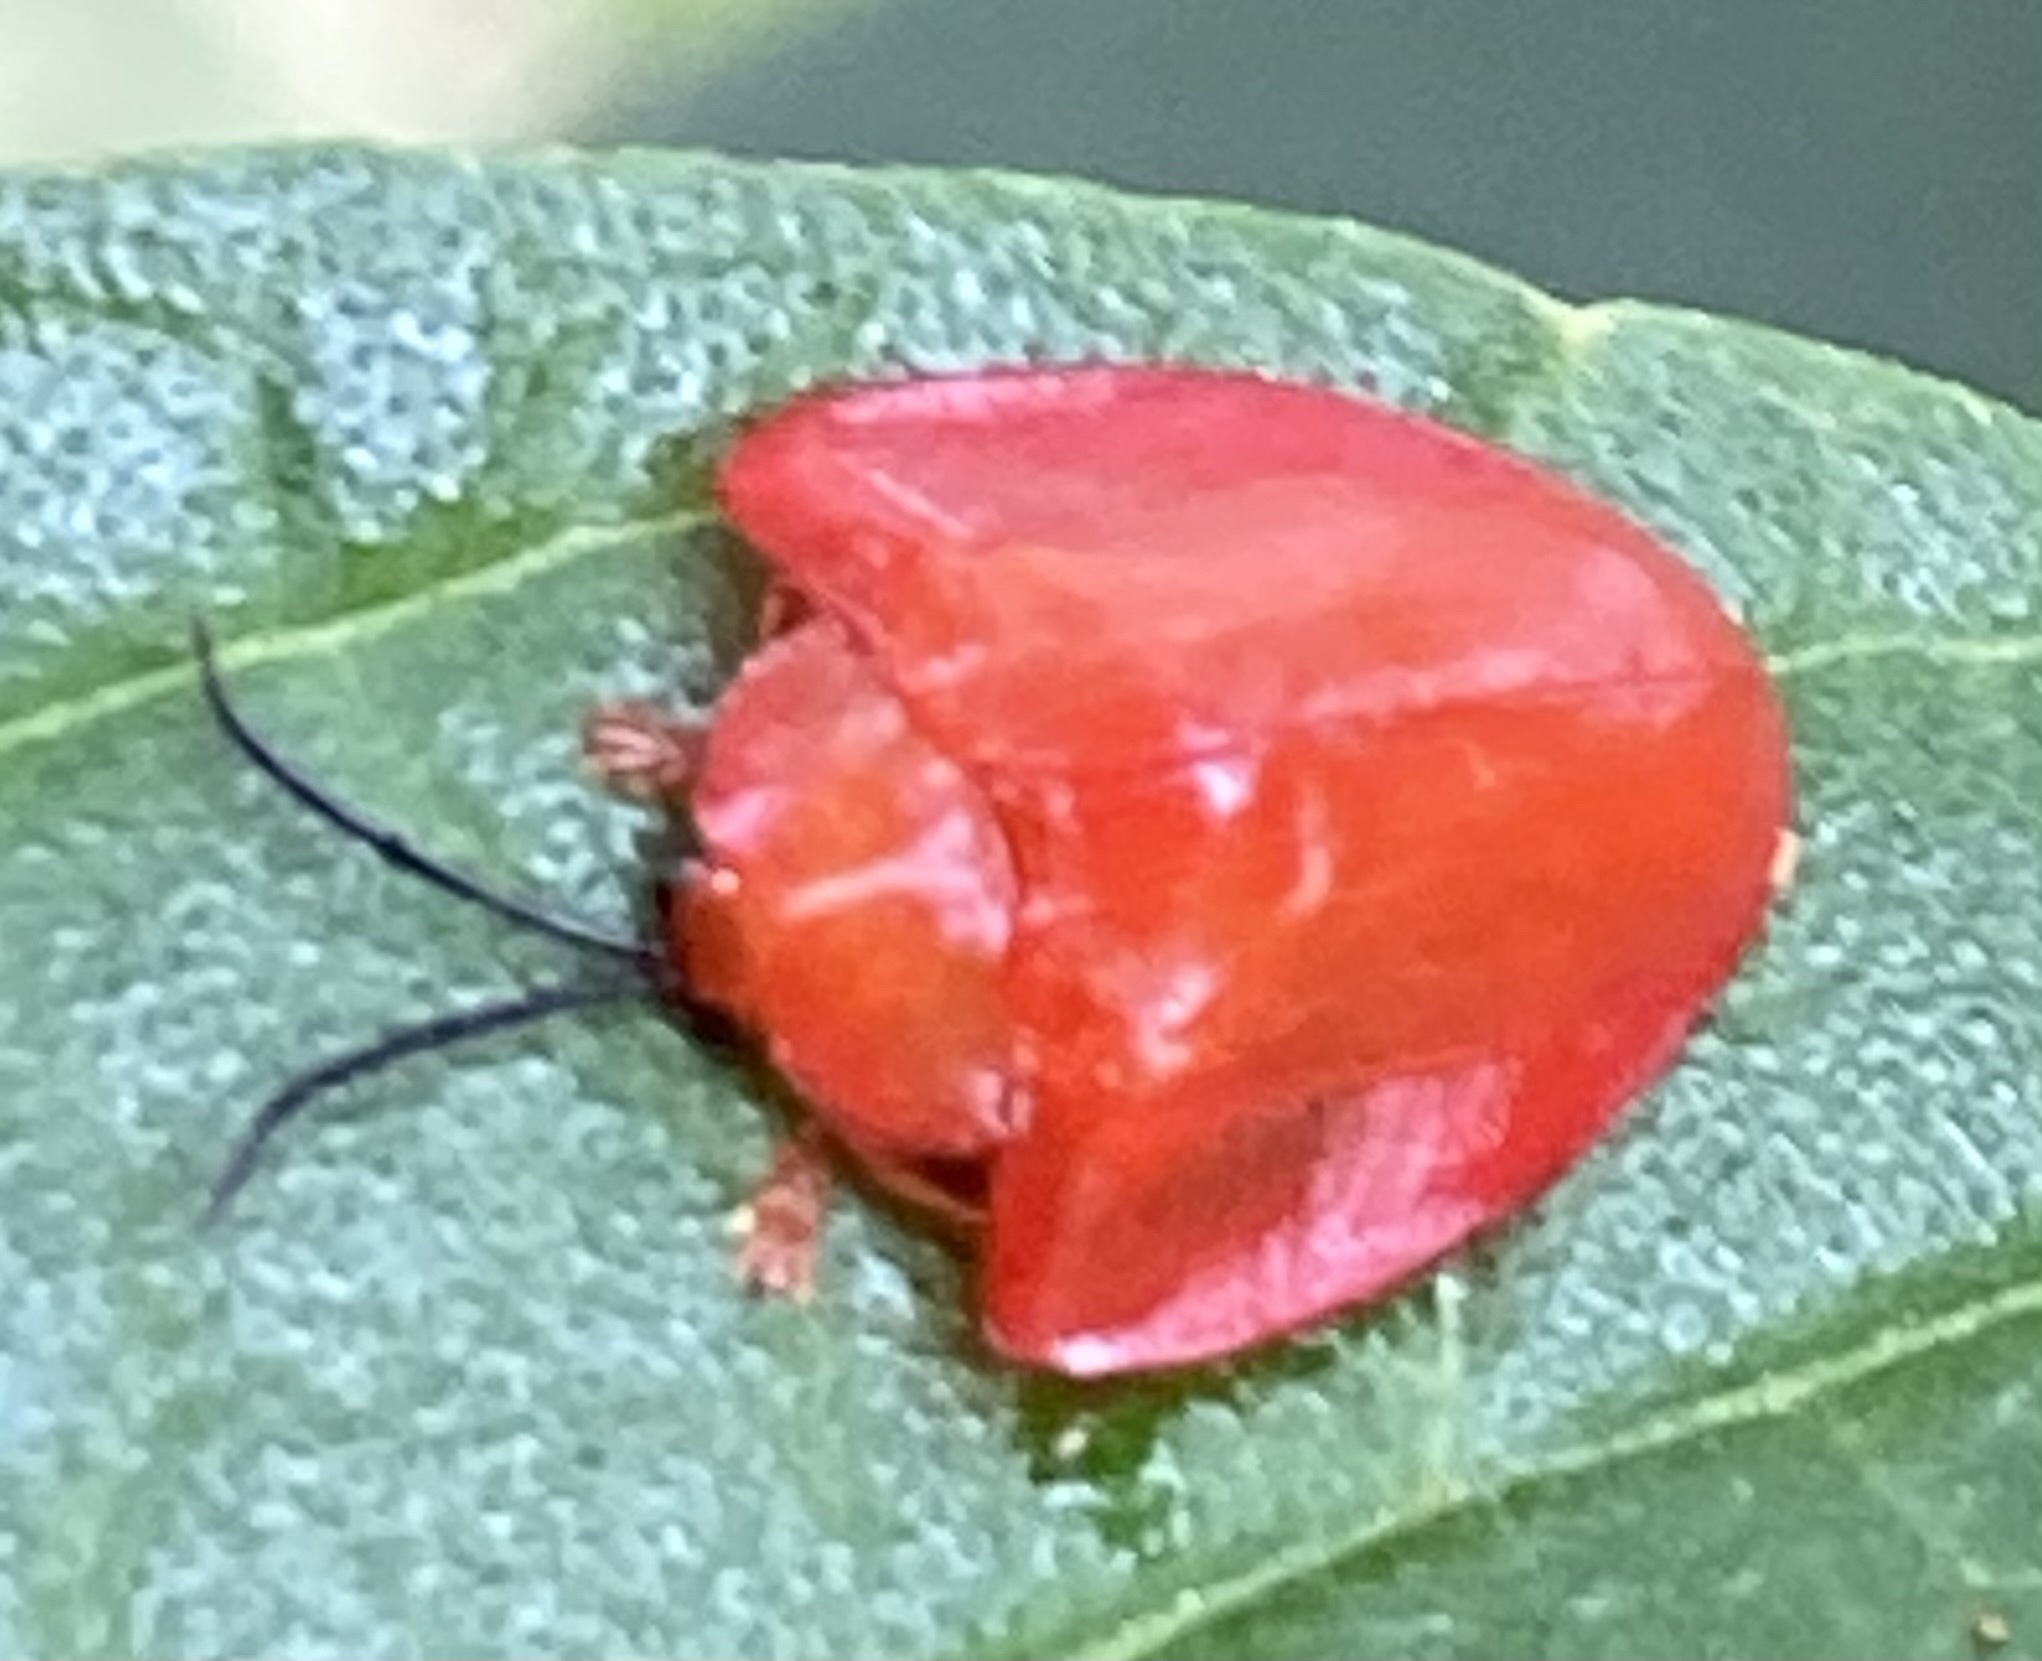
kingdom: Animalia
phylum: Arthropoda
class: Insecta
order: Coleoptera
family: Chrysomelidae
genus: Calyptocephala
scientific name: Calyptocephala nigricornis
